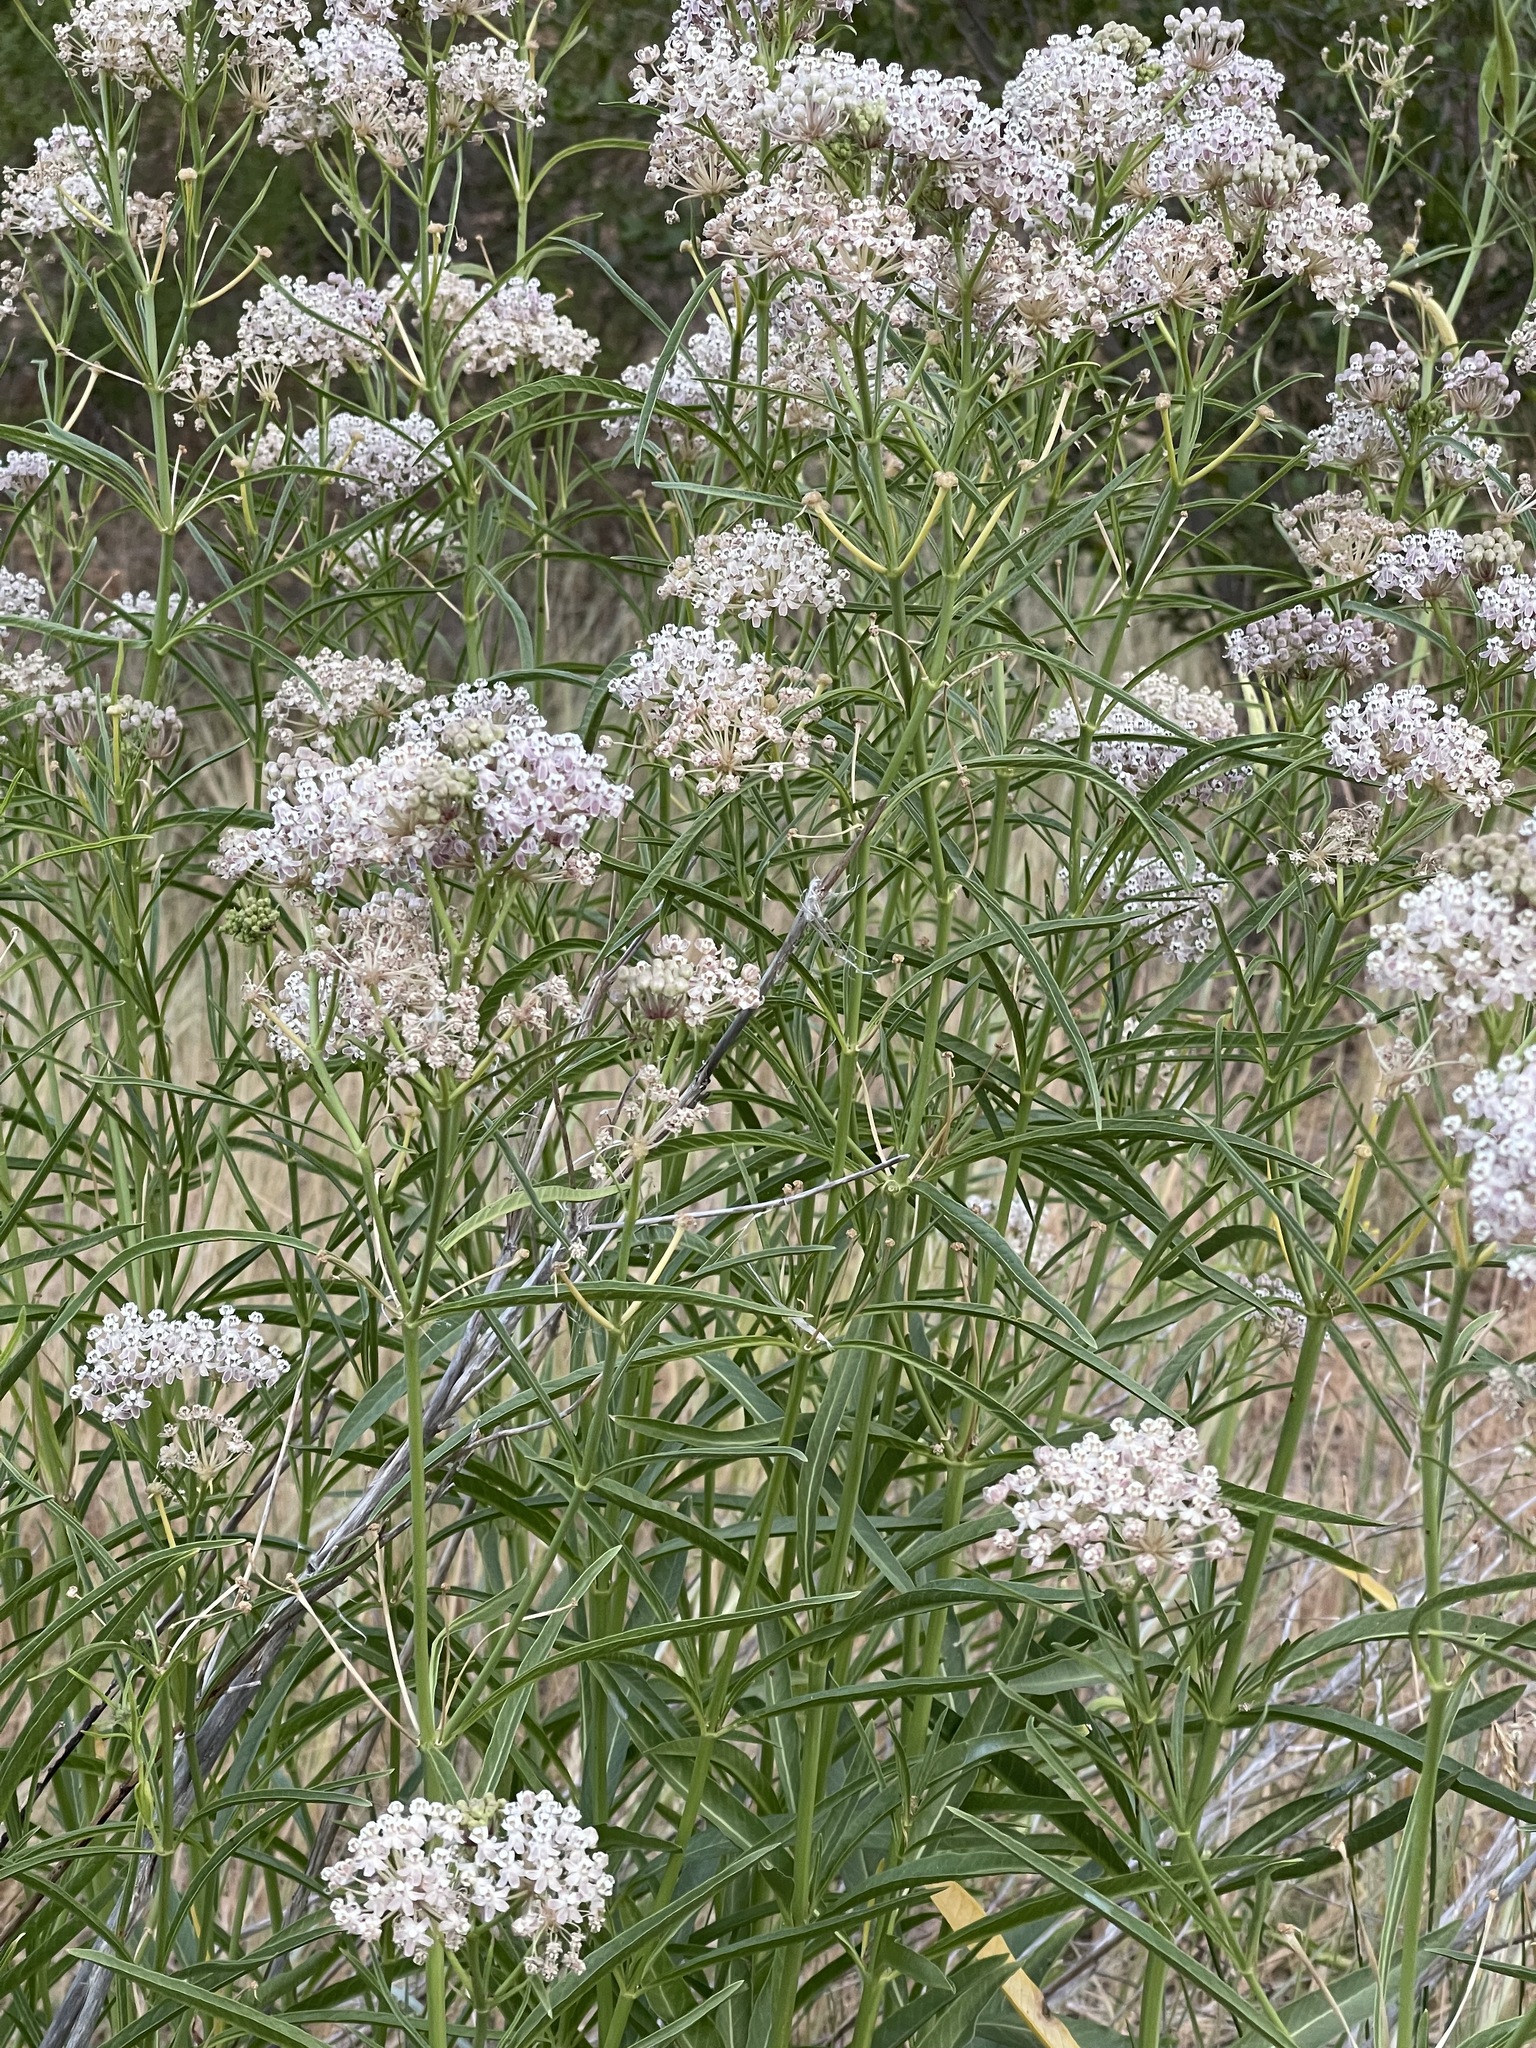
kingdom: Plantae
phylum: Tracheophyta
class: Magnoliopsida
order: Gentianales
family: Apocynaceae
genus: Asclepias
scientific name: Asclepias fascicularis
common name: Mexican milkweed
